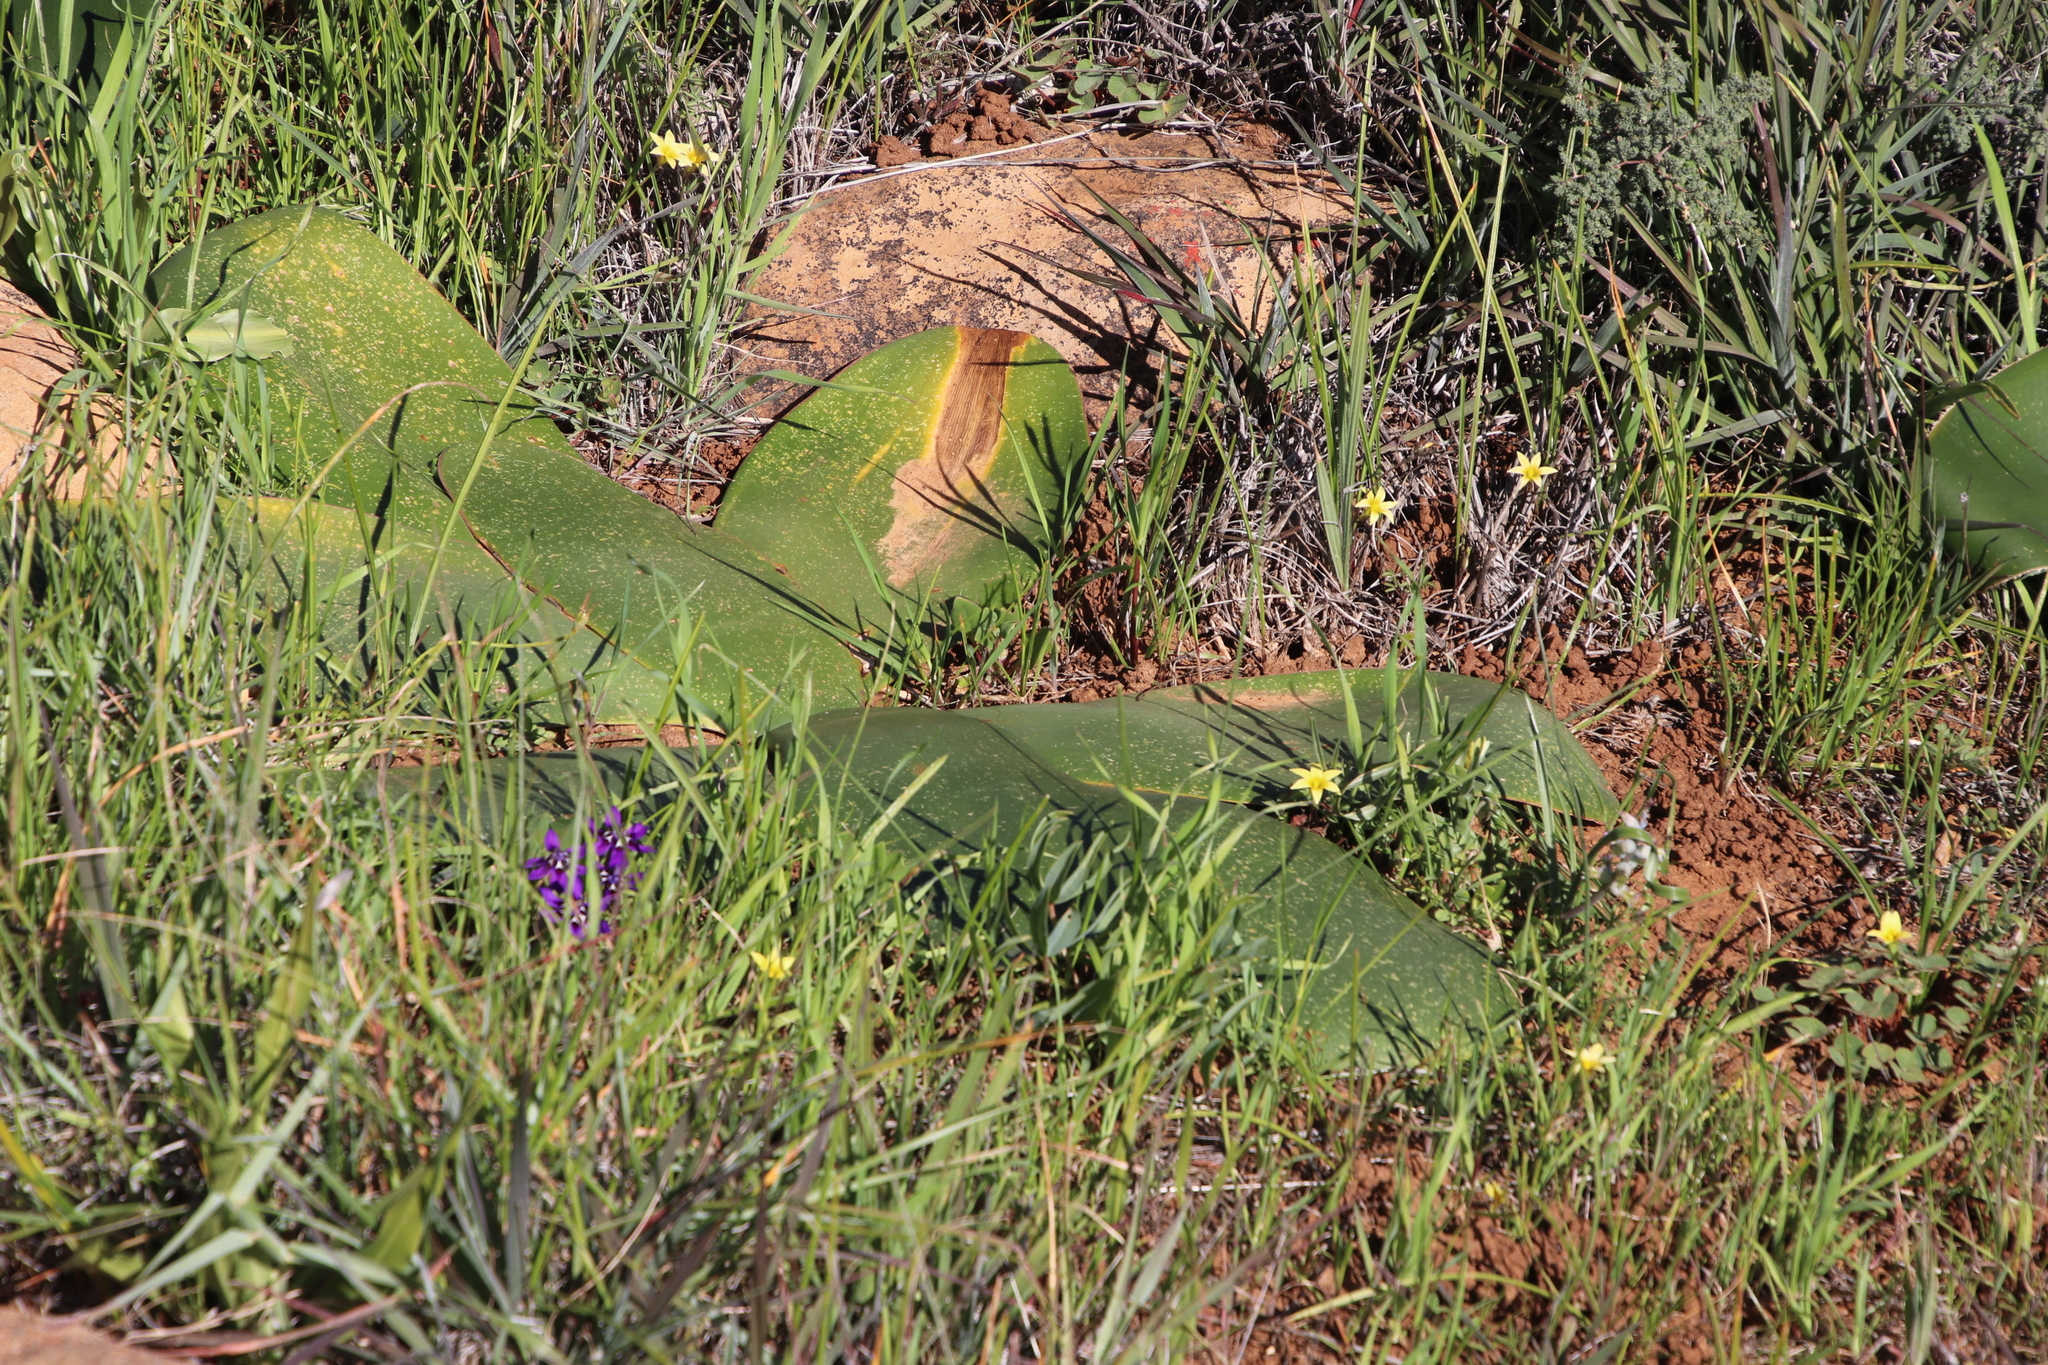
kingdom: Plantae
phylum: Tracheophyta
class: Liliopsida
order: Asparagales
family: Amaryllidaceae
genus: Brunsvigia
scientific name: Brunsvigia bosmaniae
